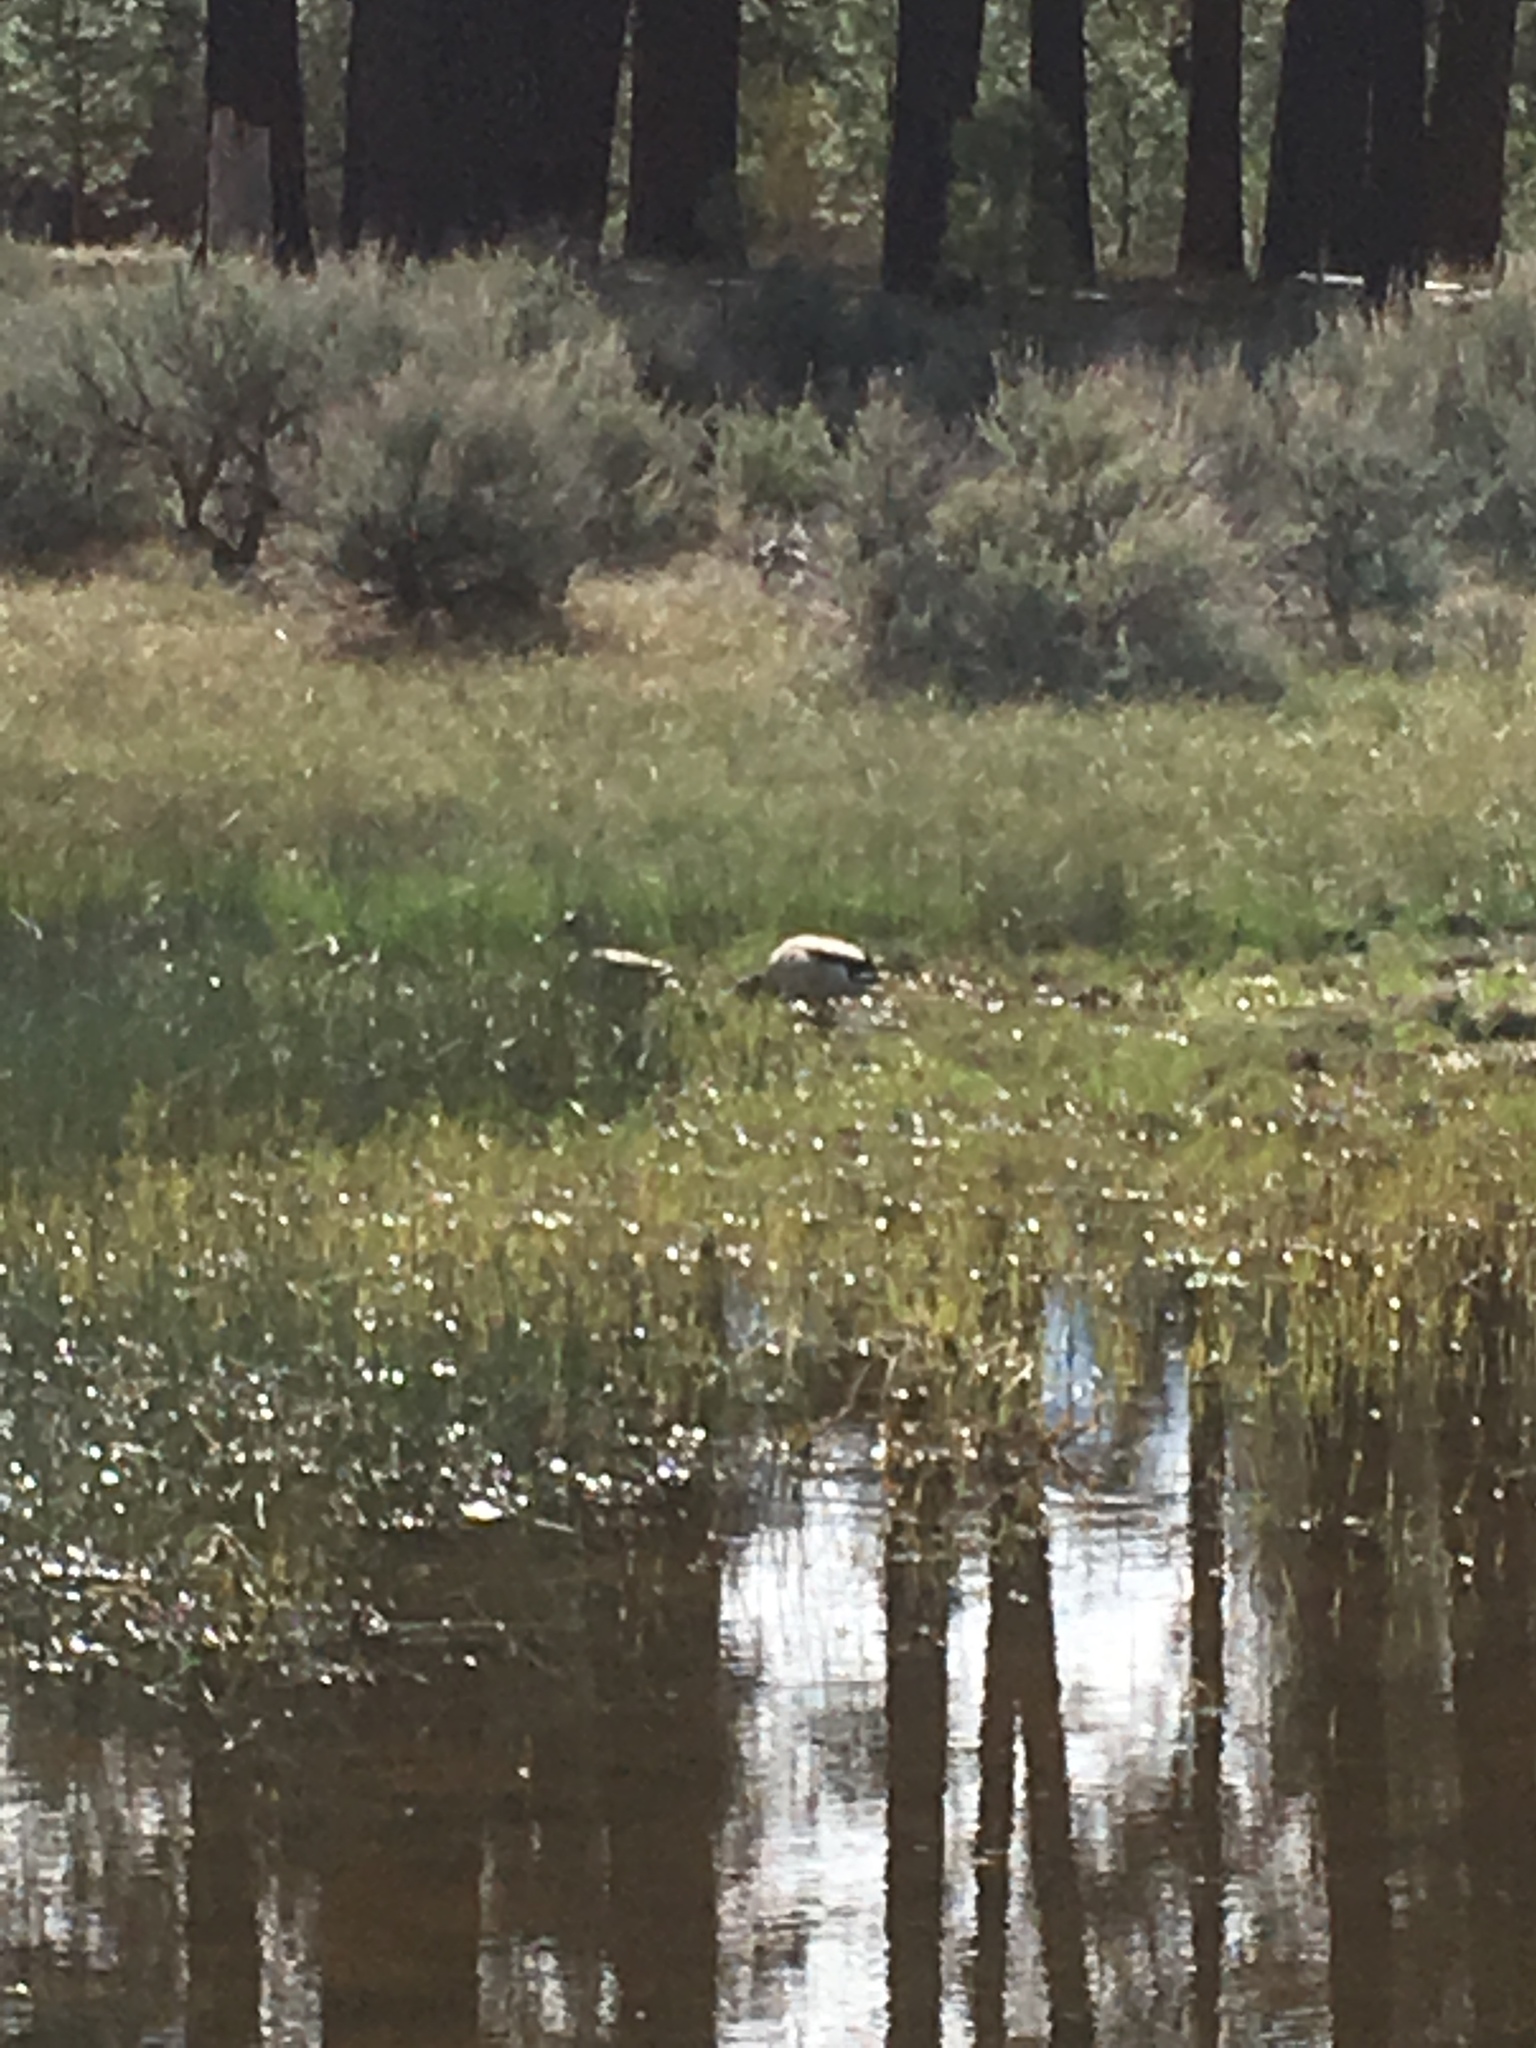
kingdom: Animalia
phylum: Chordata
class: Aves
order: Anseriformes
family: Anatidae
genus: Anas
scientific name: Anas platyrhynchos
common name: Mallard
